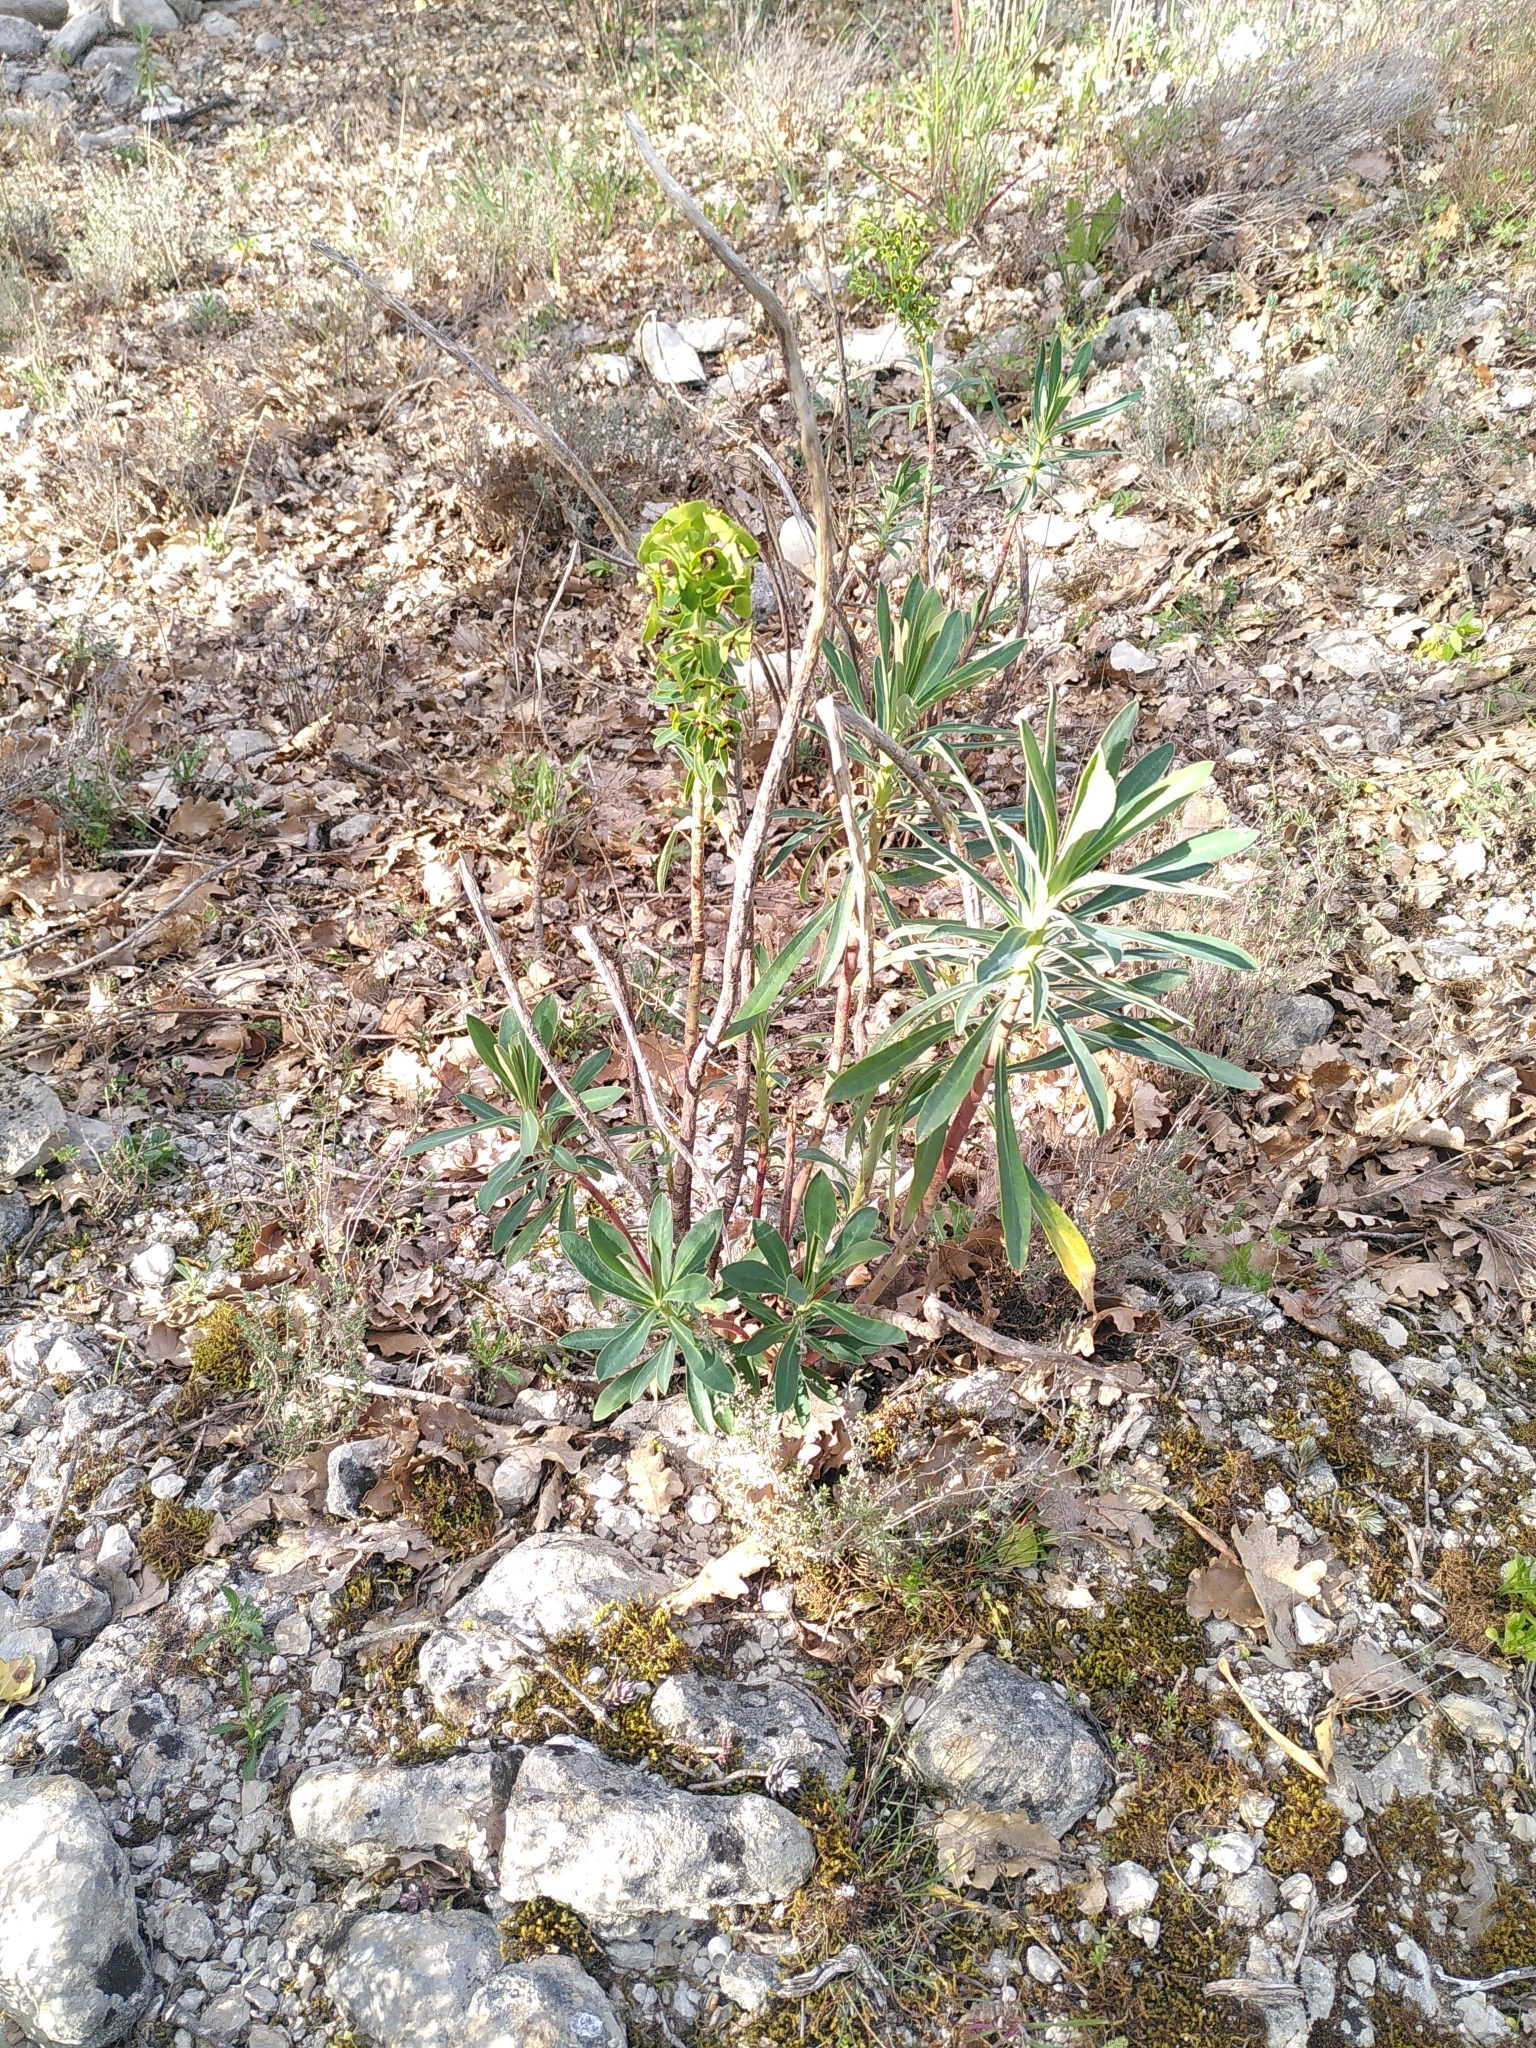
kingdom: Plantae
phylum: Tracheophyta
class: Magnoliopsida
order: Malpighiales
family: Euphorbiaceae
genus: Euphorbia
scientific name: Euphorbia characias
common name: Mediterranean spurge
